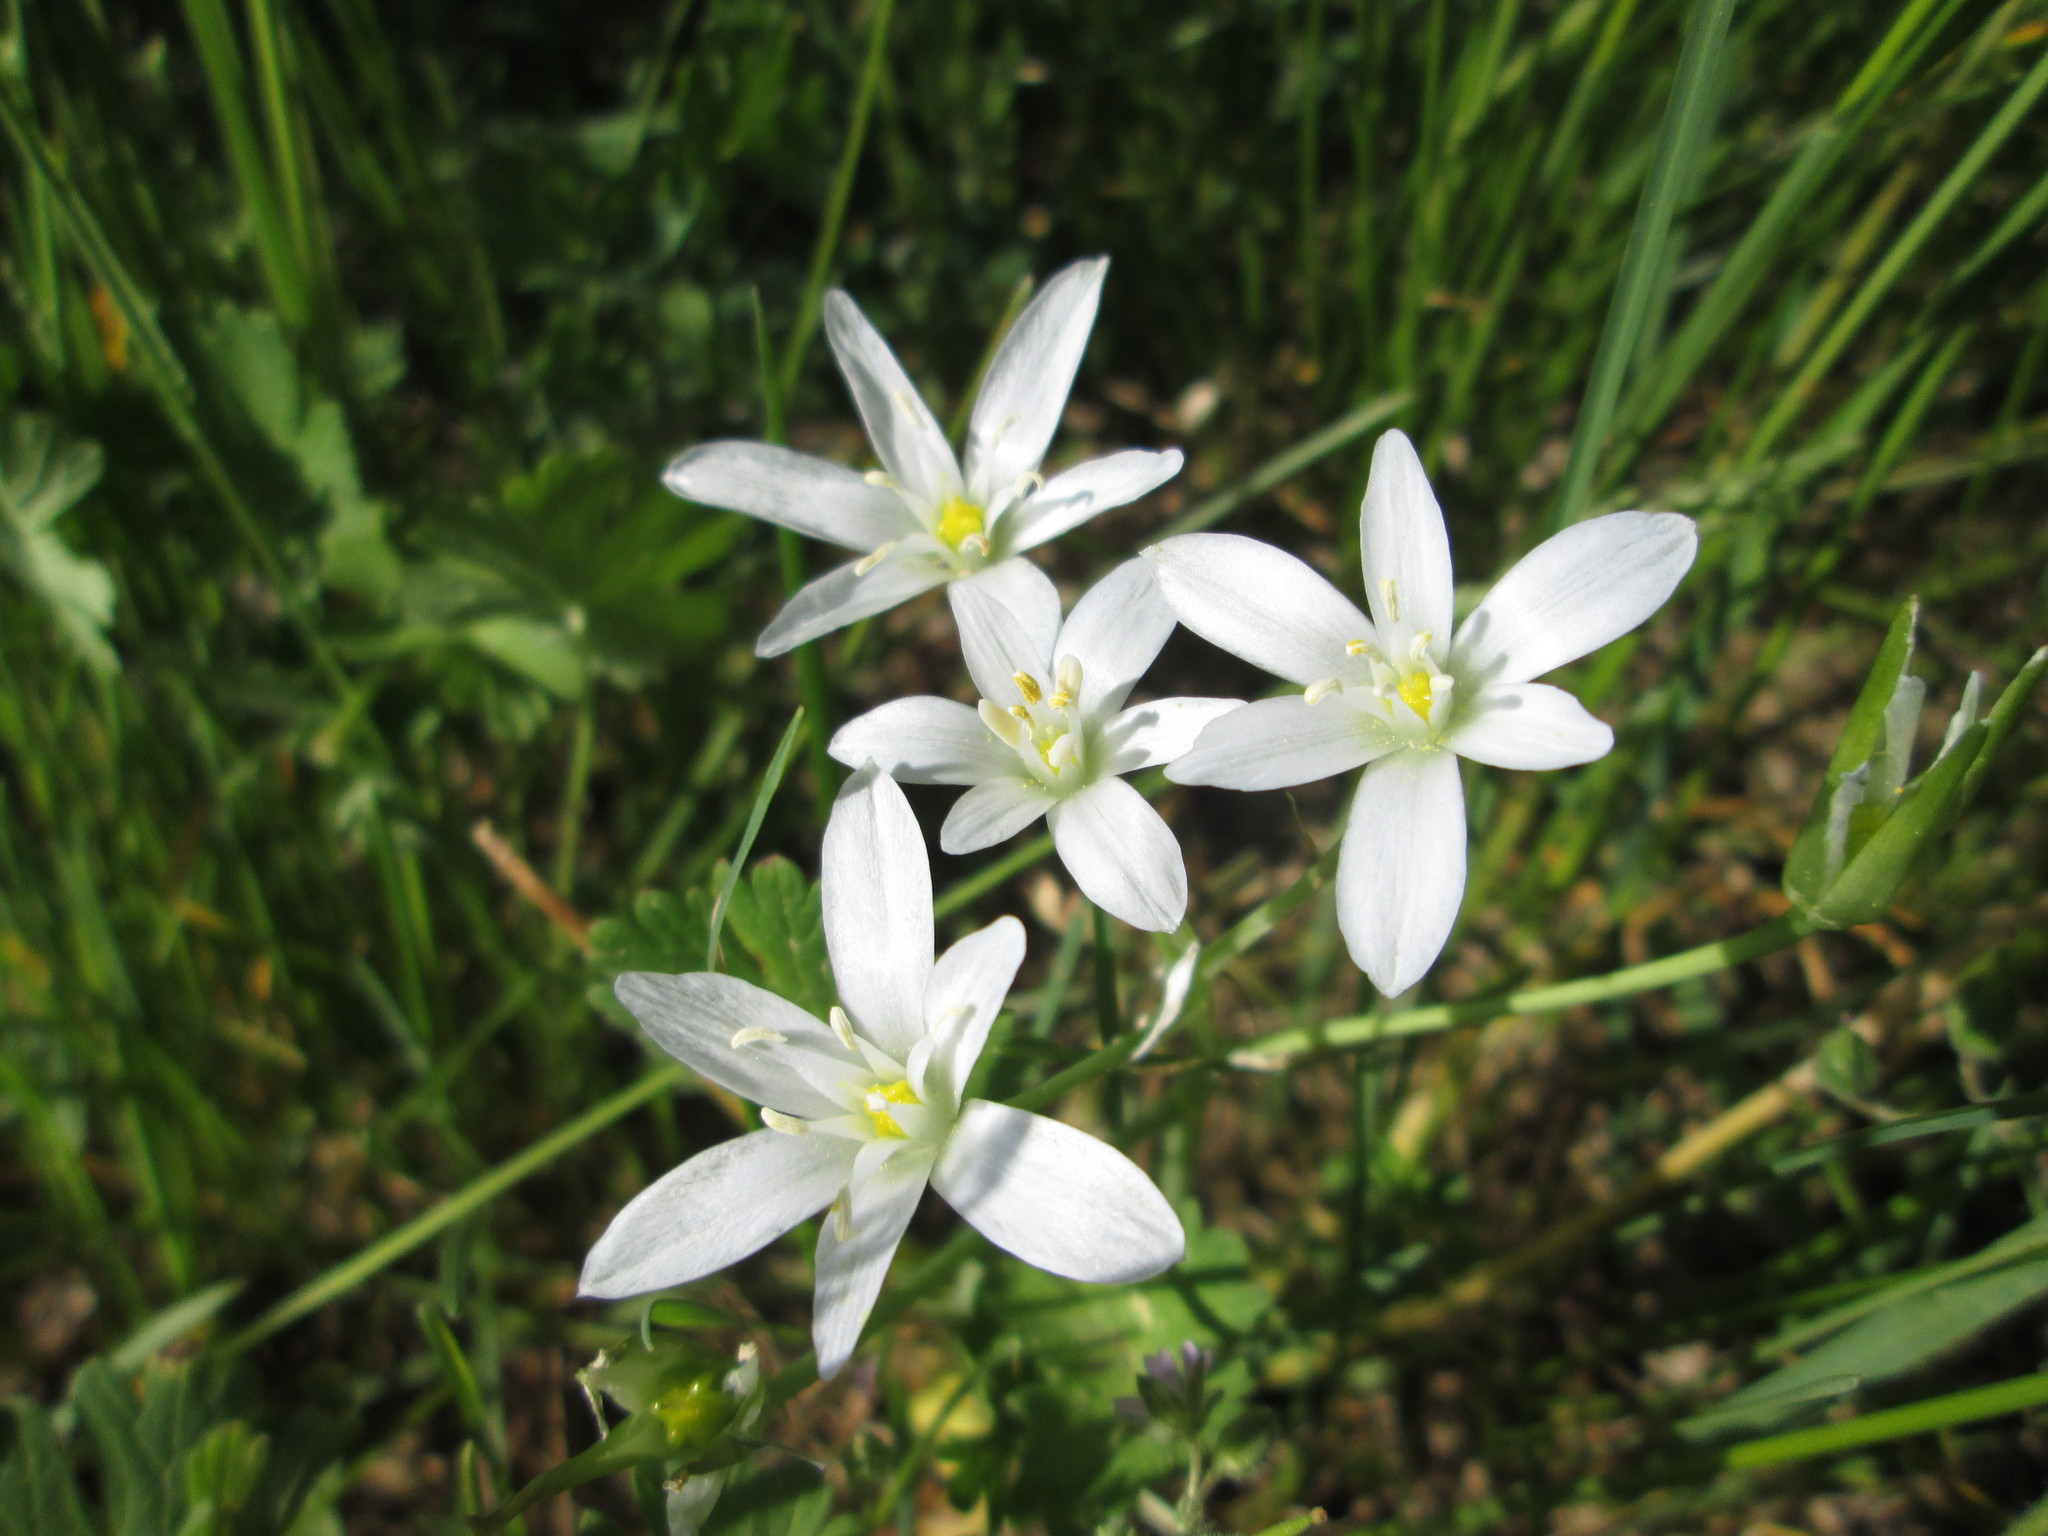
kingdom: Plantae
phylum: Tracheophyta
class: Liliopsida
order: Asparagales
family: Asparagaceae
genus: Ornithogalum
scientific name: Ornithogalum umbellatum
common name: Garden star-of-bethlehem
